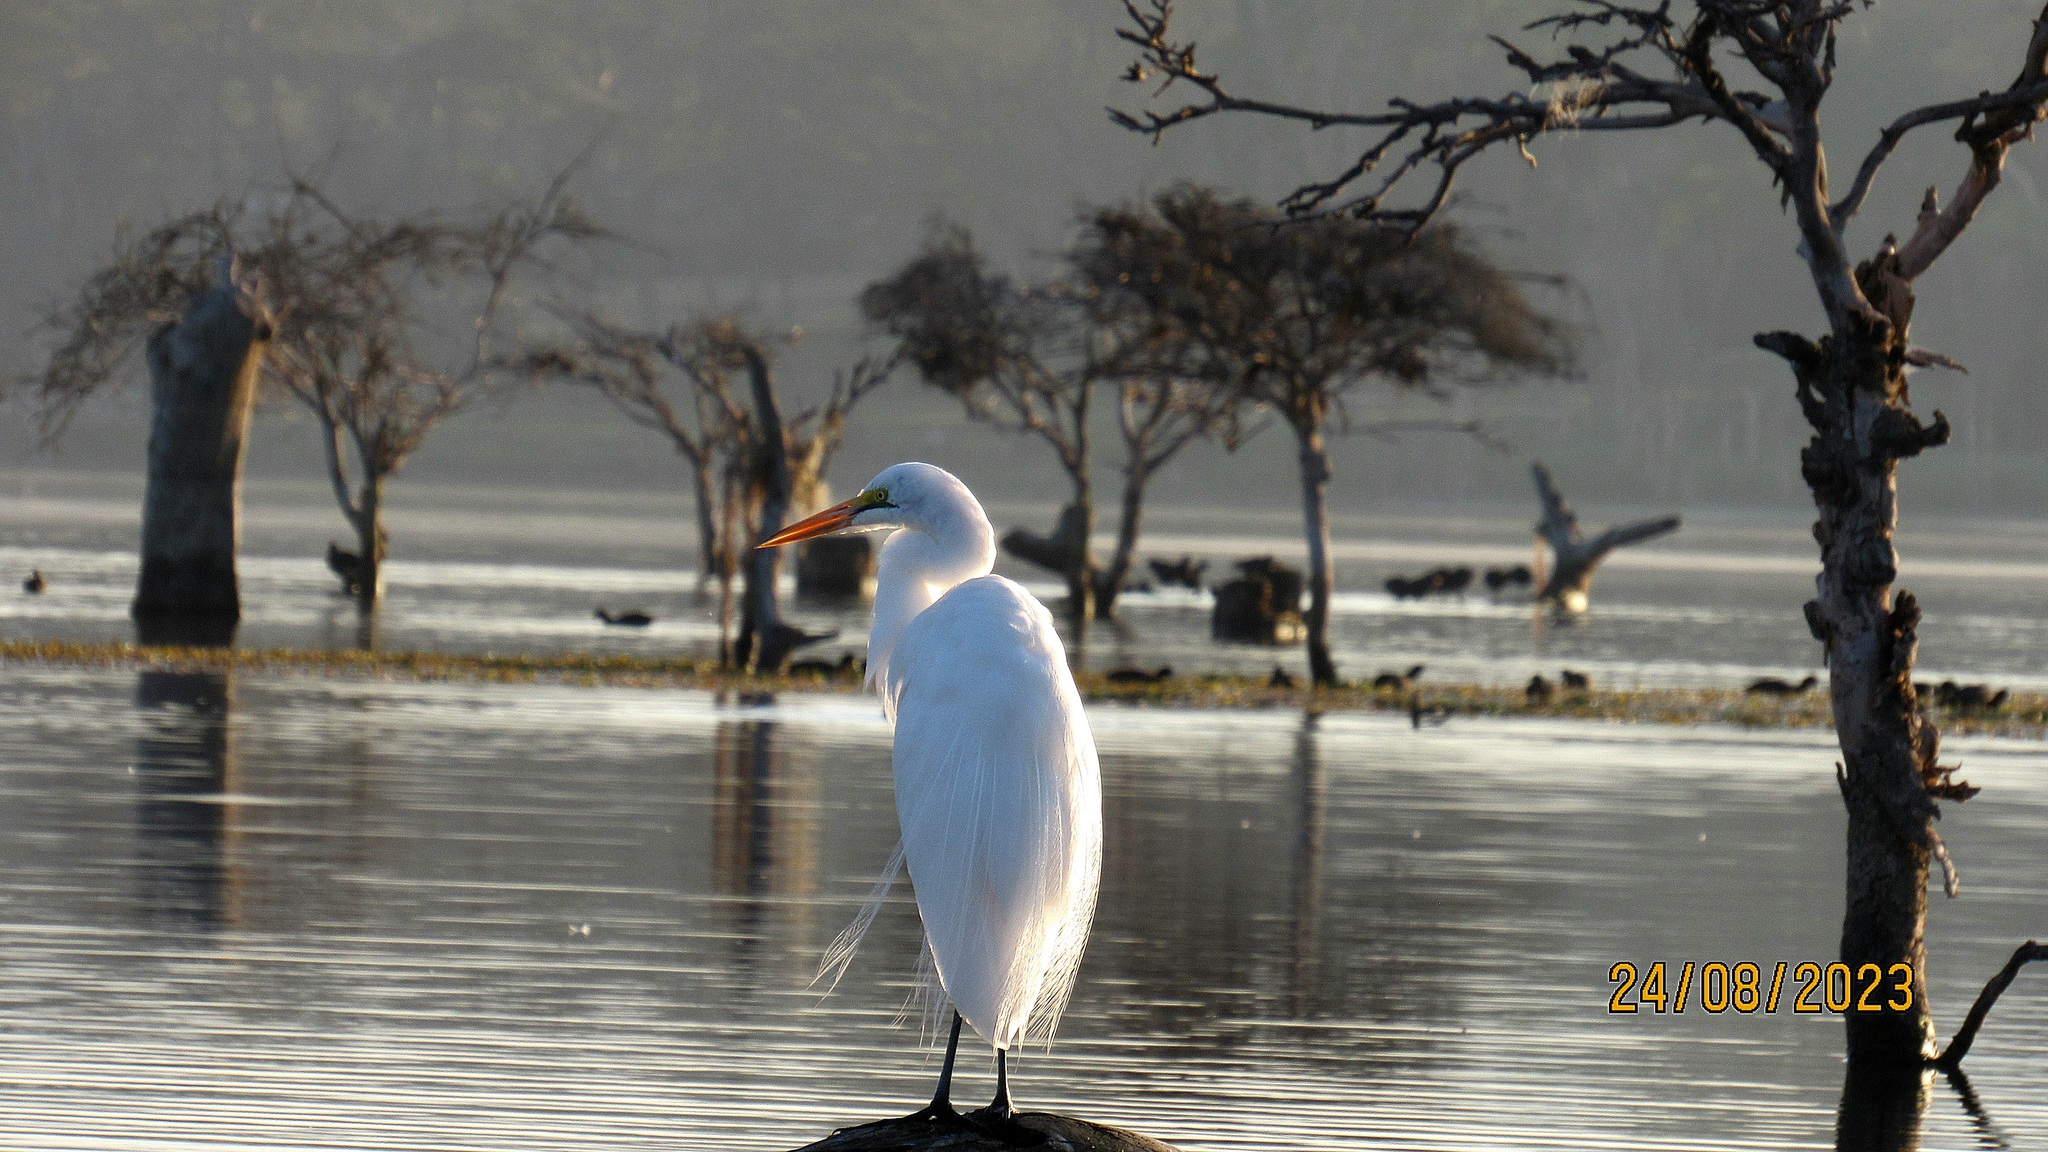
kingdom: Animalia
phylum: Chordata
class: Aves
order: Pelecaniformes
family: Ardeidae
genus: Ardea
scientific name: Ardea alba
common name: Great egret
